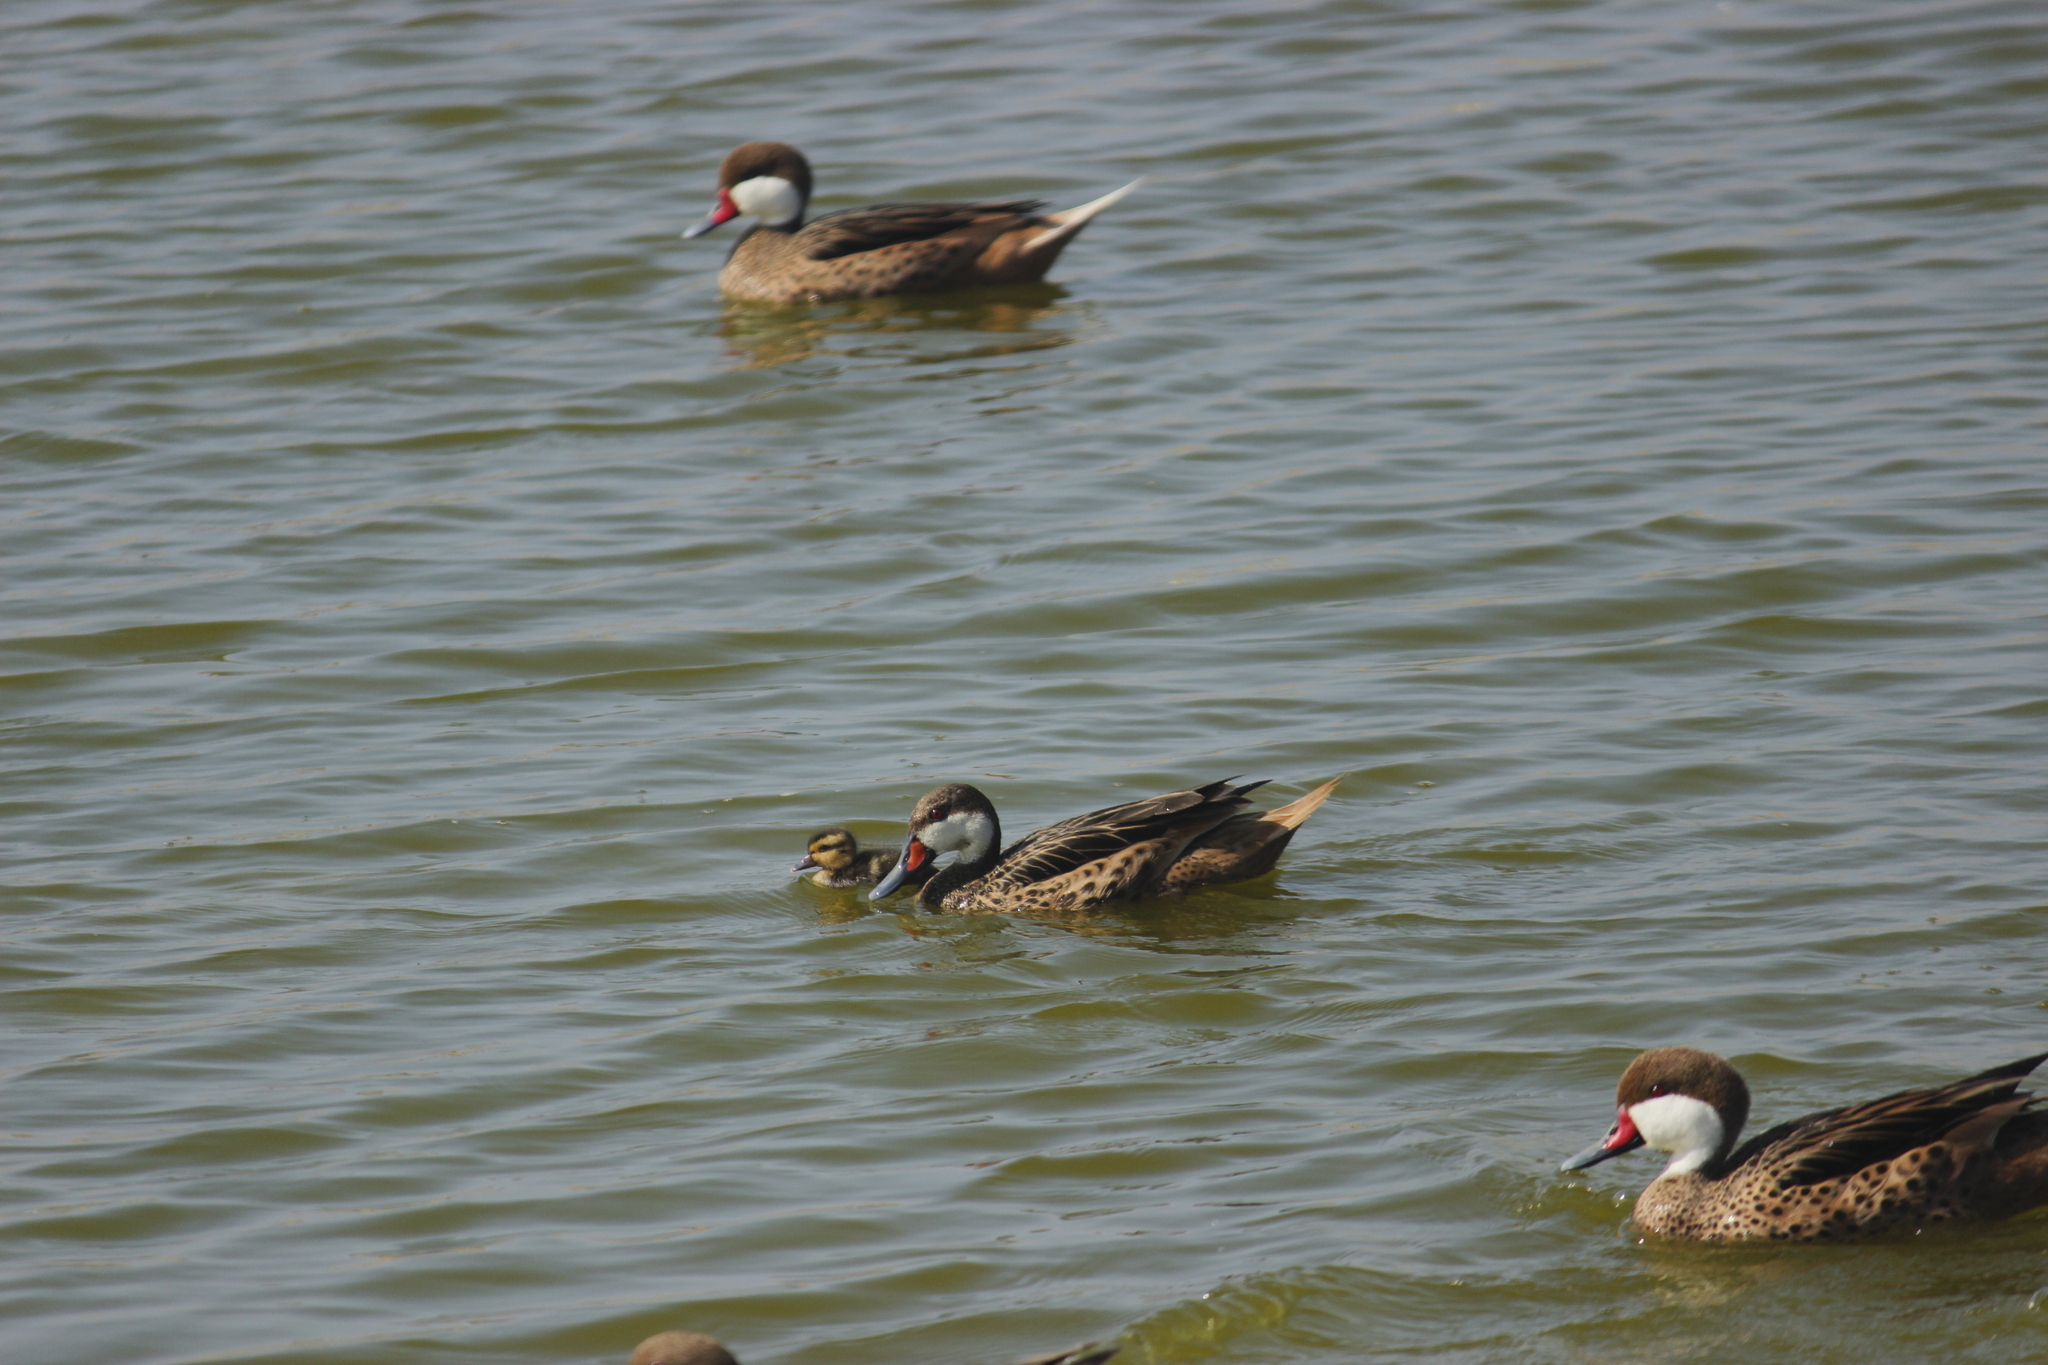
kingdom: Animalia
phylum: Chordata
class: Aves
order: Anseriformes
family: Anatidae
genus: Anas
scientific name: Anas bahamensis
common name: White-cheeked pintail
